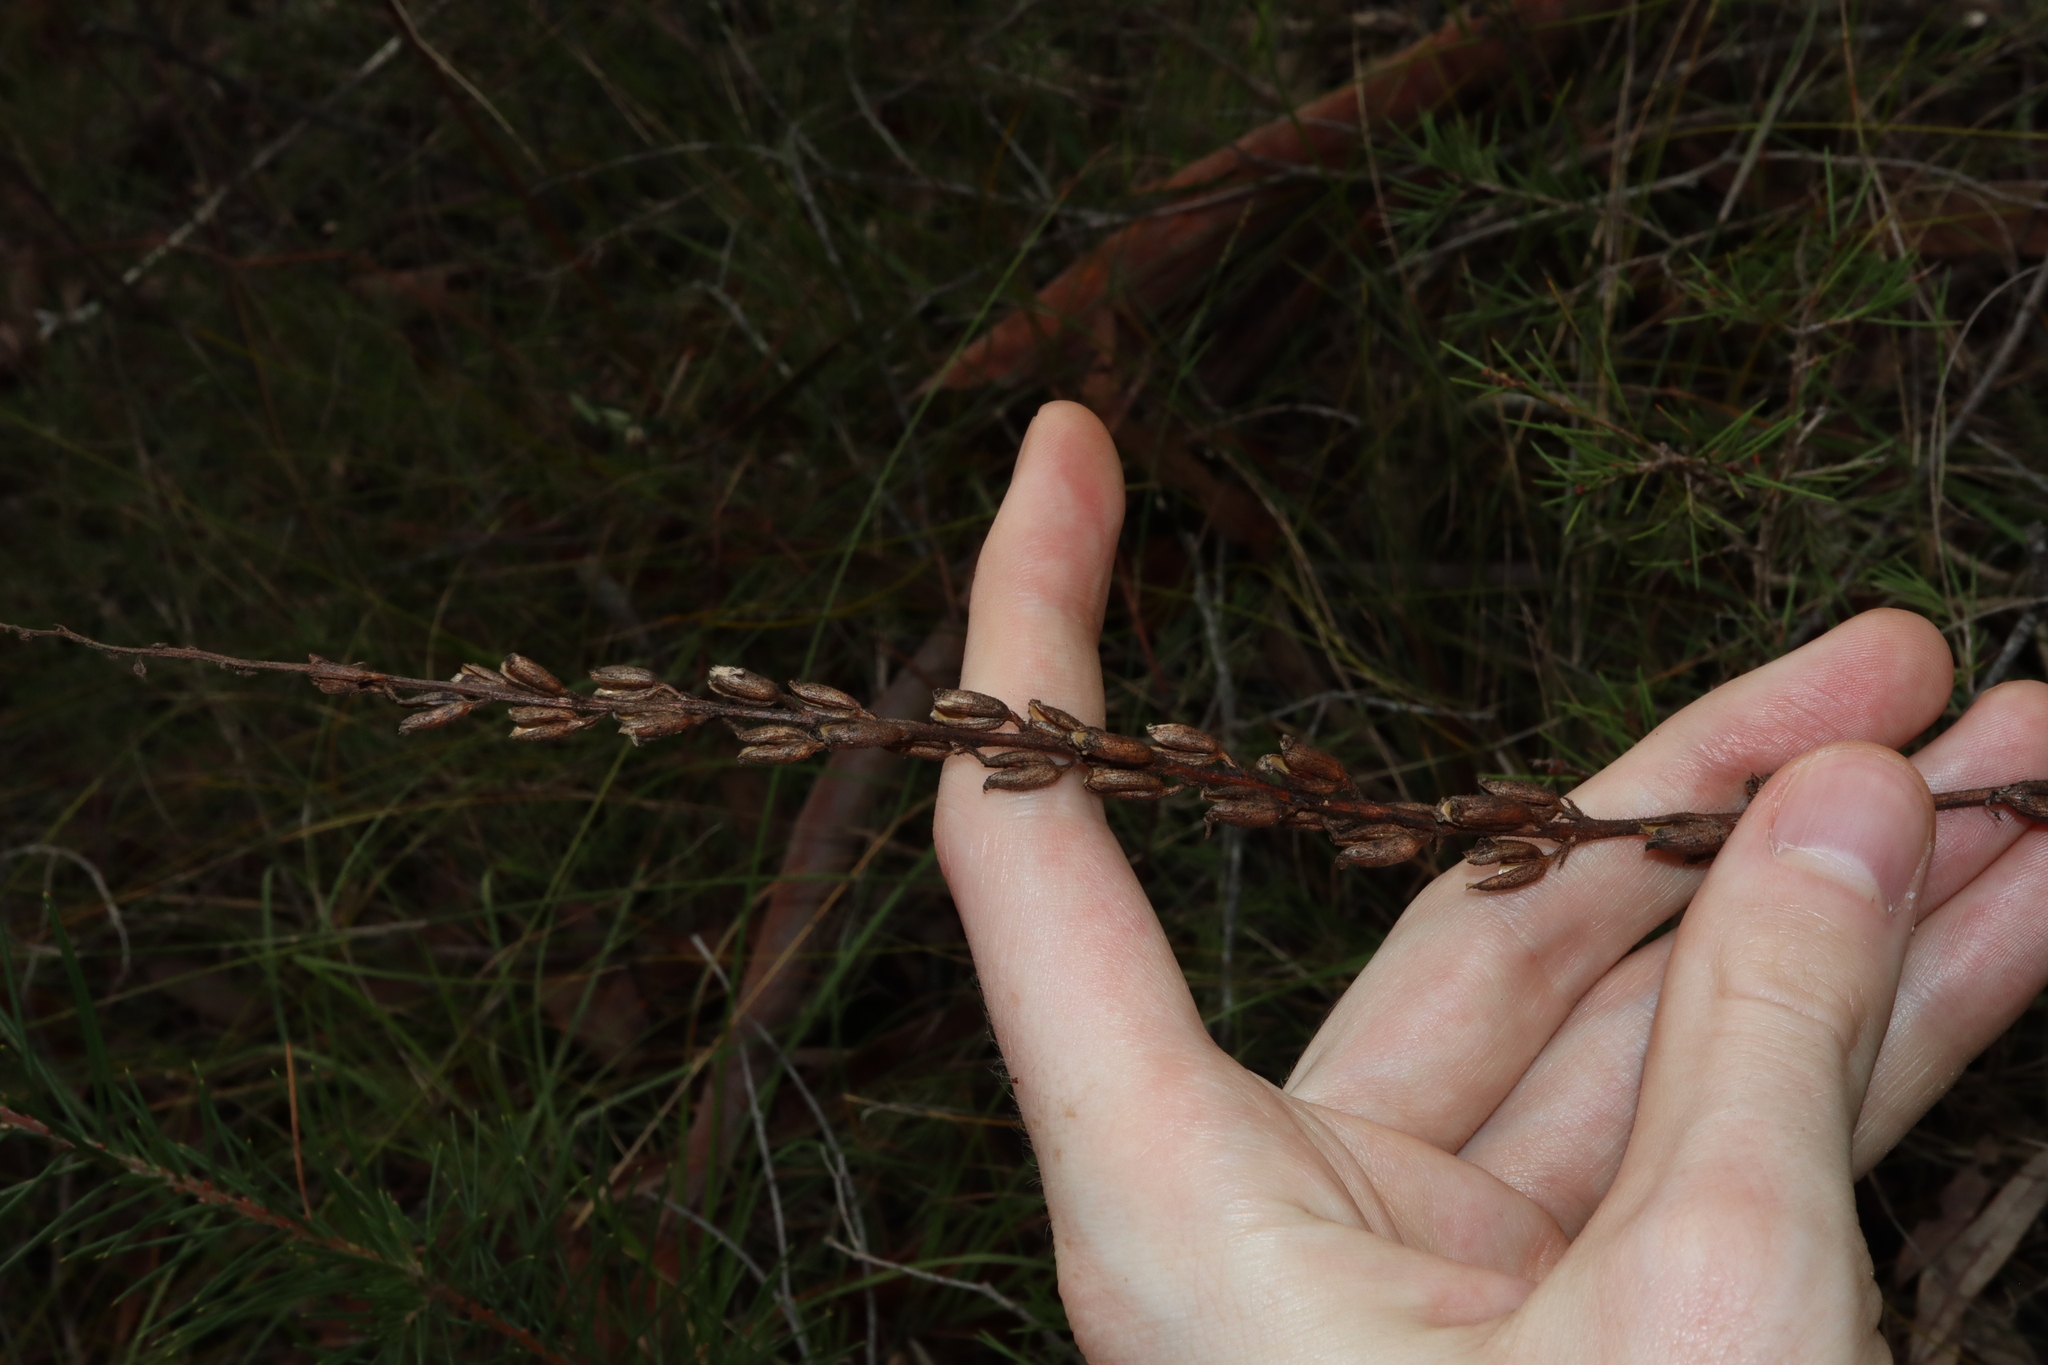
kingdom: Plantae
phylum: Tracheophyta
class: Magnoliopsida
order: Asterales
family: Stylidiaceae
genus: Stylidium
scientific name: Stylidium graminifolium
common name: Grass triggerplant
